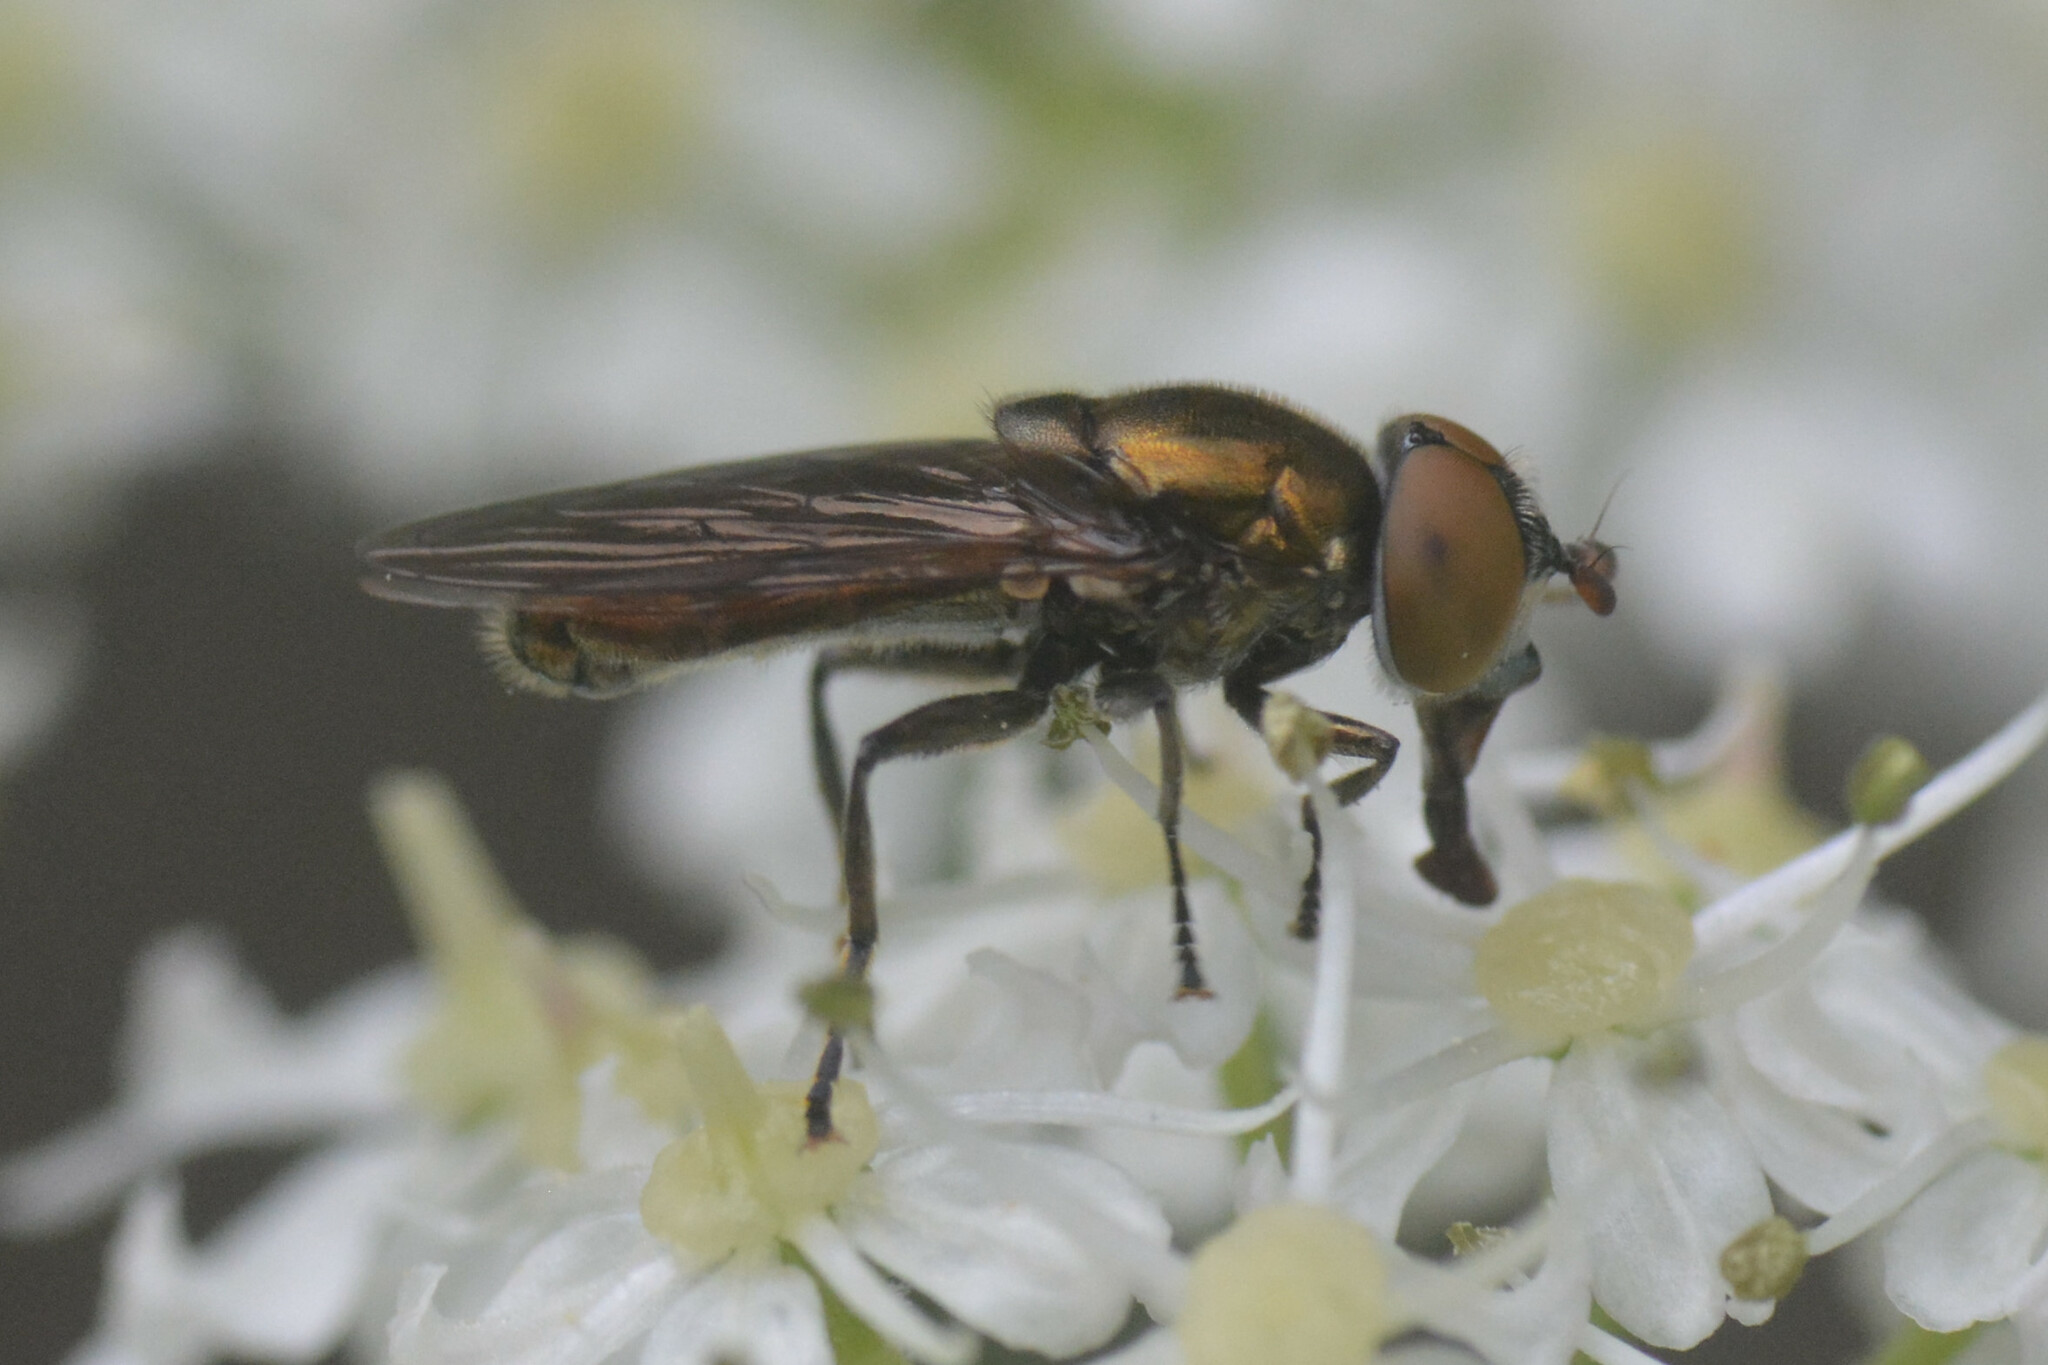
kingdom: Animalia
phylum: Arthropoda
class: Insecta
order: Diptera
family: Syrphidae
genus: Orthonevra
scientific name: Orthonevra splendens
